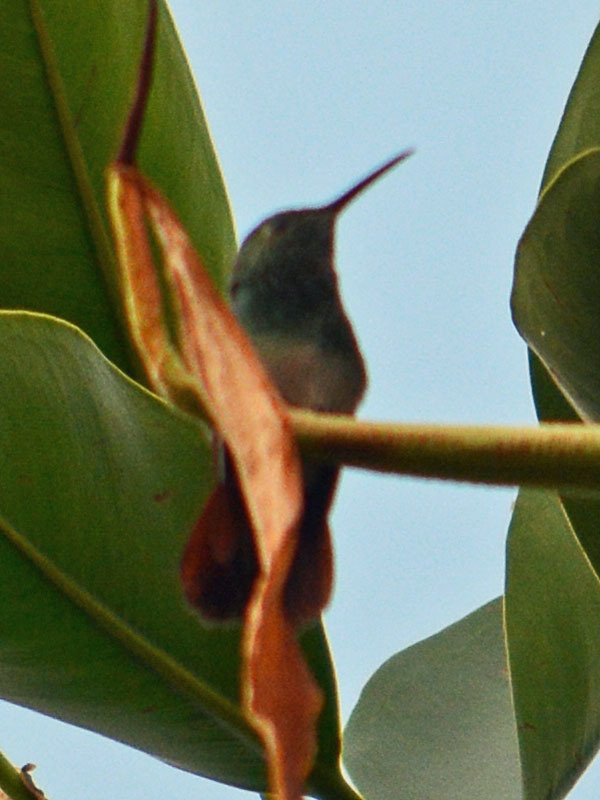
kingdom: Animalia
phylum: Chordata
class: Aves
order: Apodiformes
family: Trochilidae
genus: Saucerottia
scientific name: Saucerottia beryllina
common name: Berylline hummingbird
